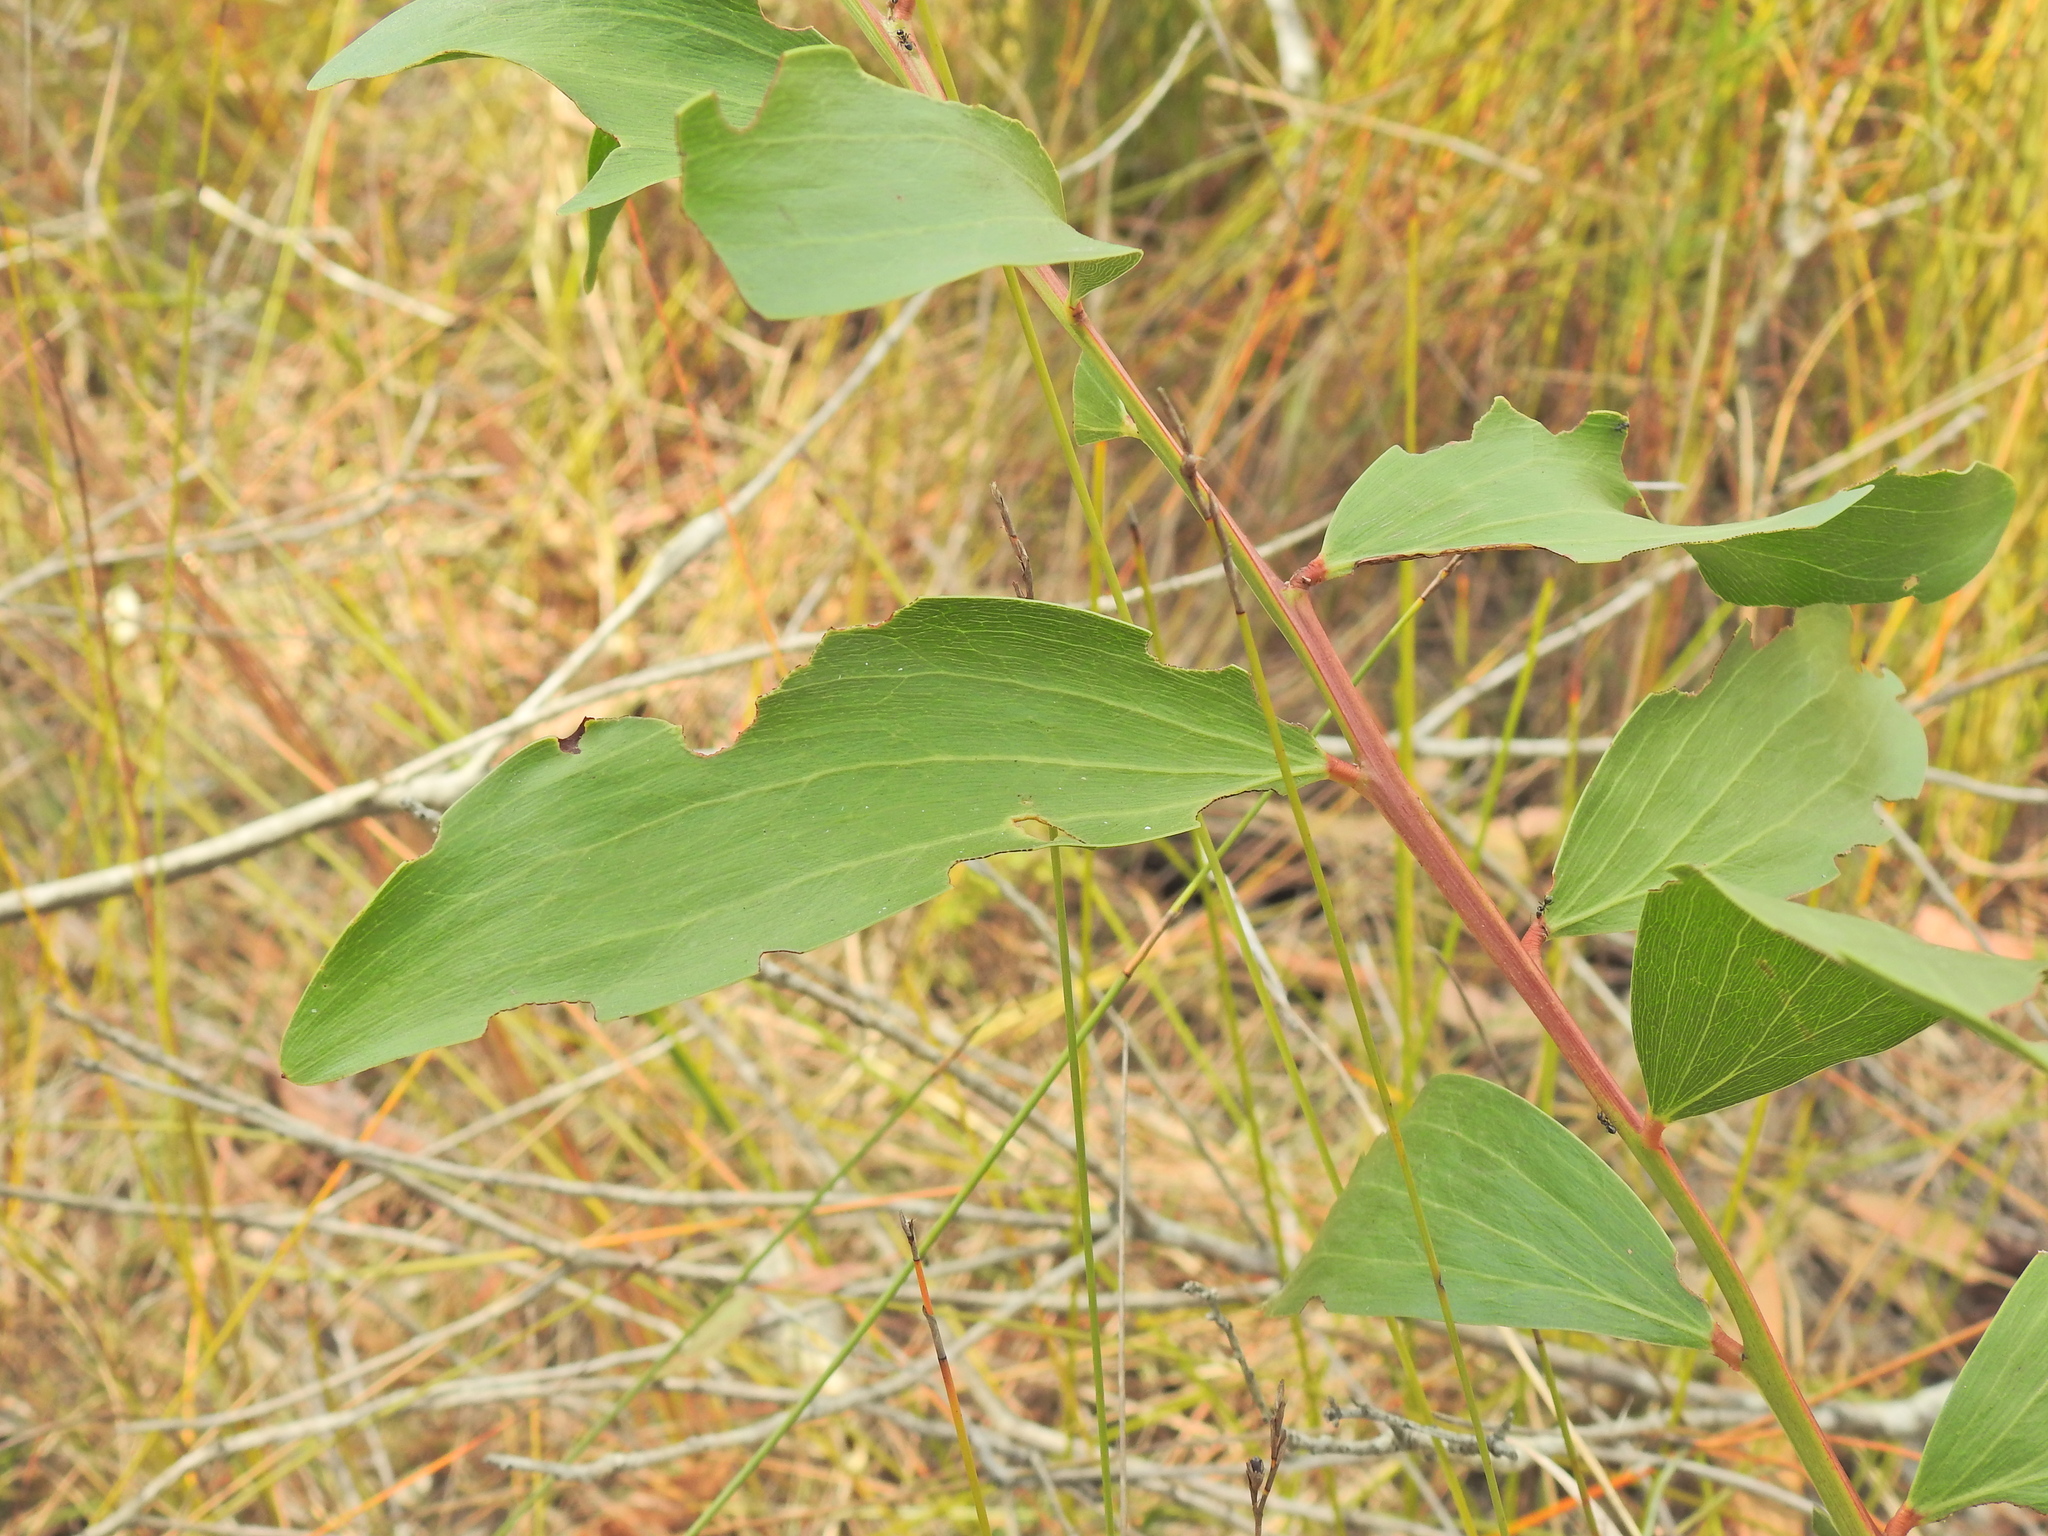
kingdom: Plantae
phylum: Tracheophyta
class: Magnoliopsida
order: Fabales
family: Fabaceae
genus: Acacia
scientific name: Acacia leiocalyx
